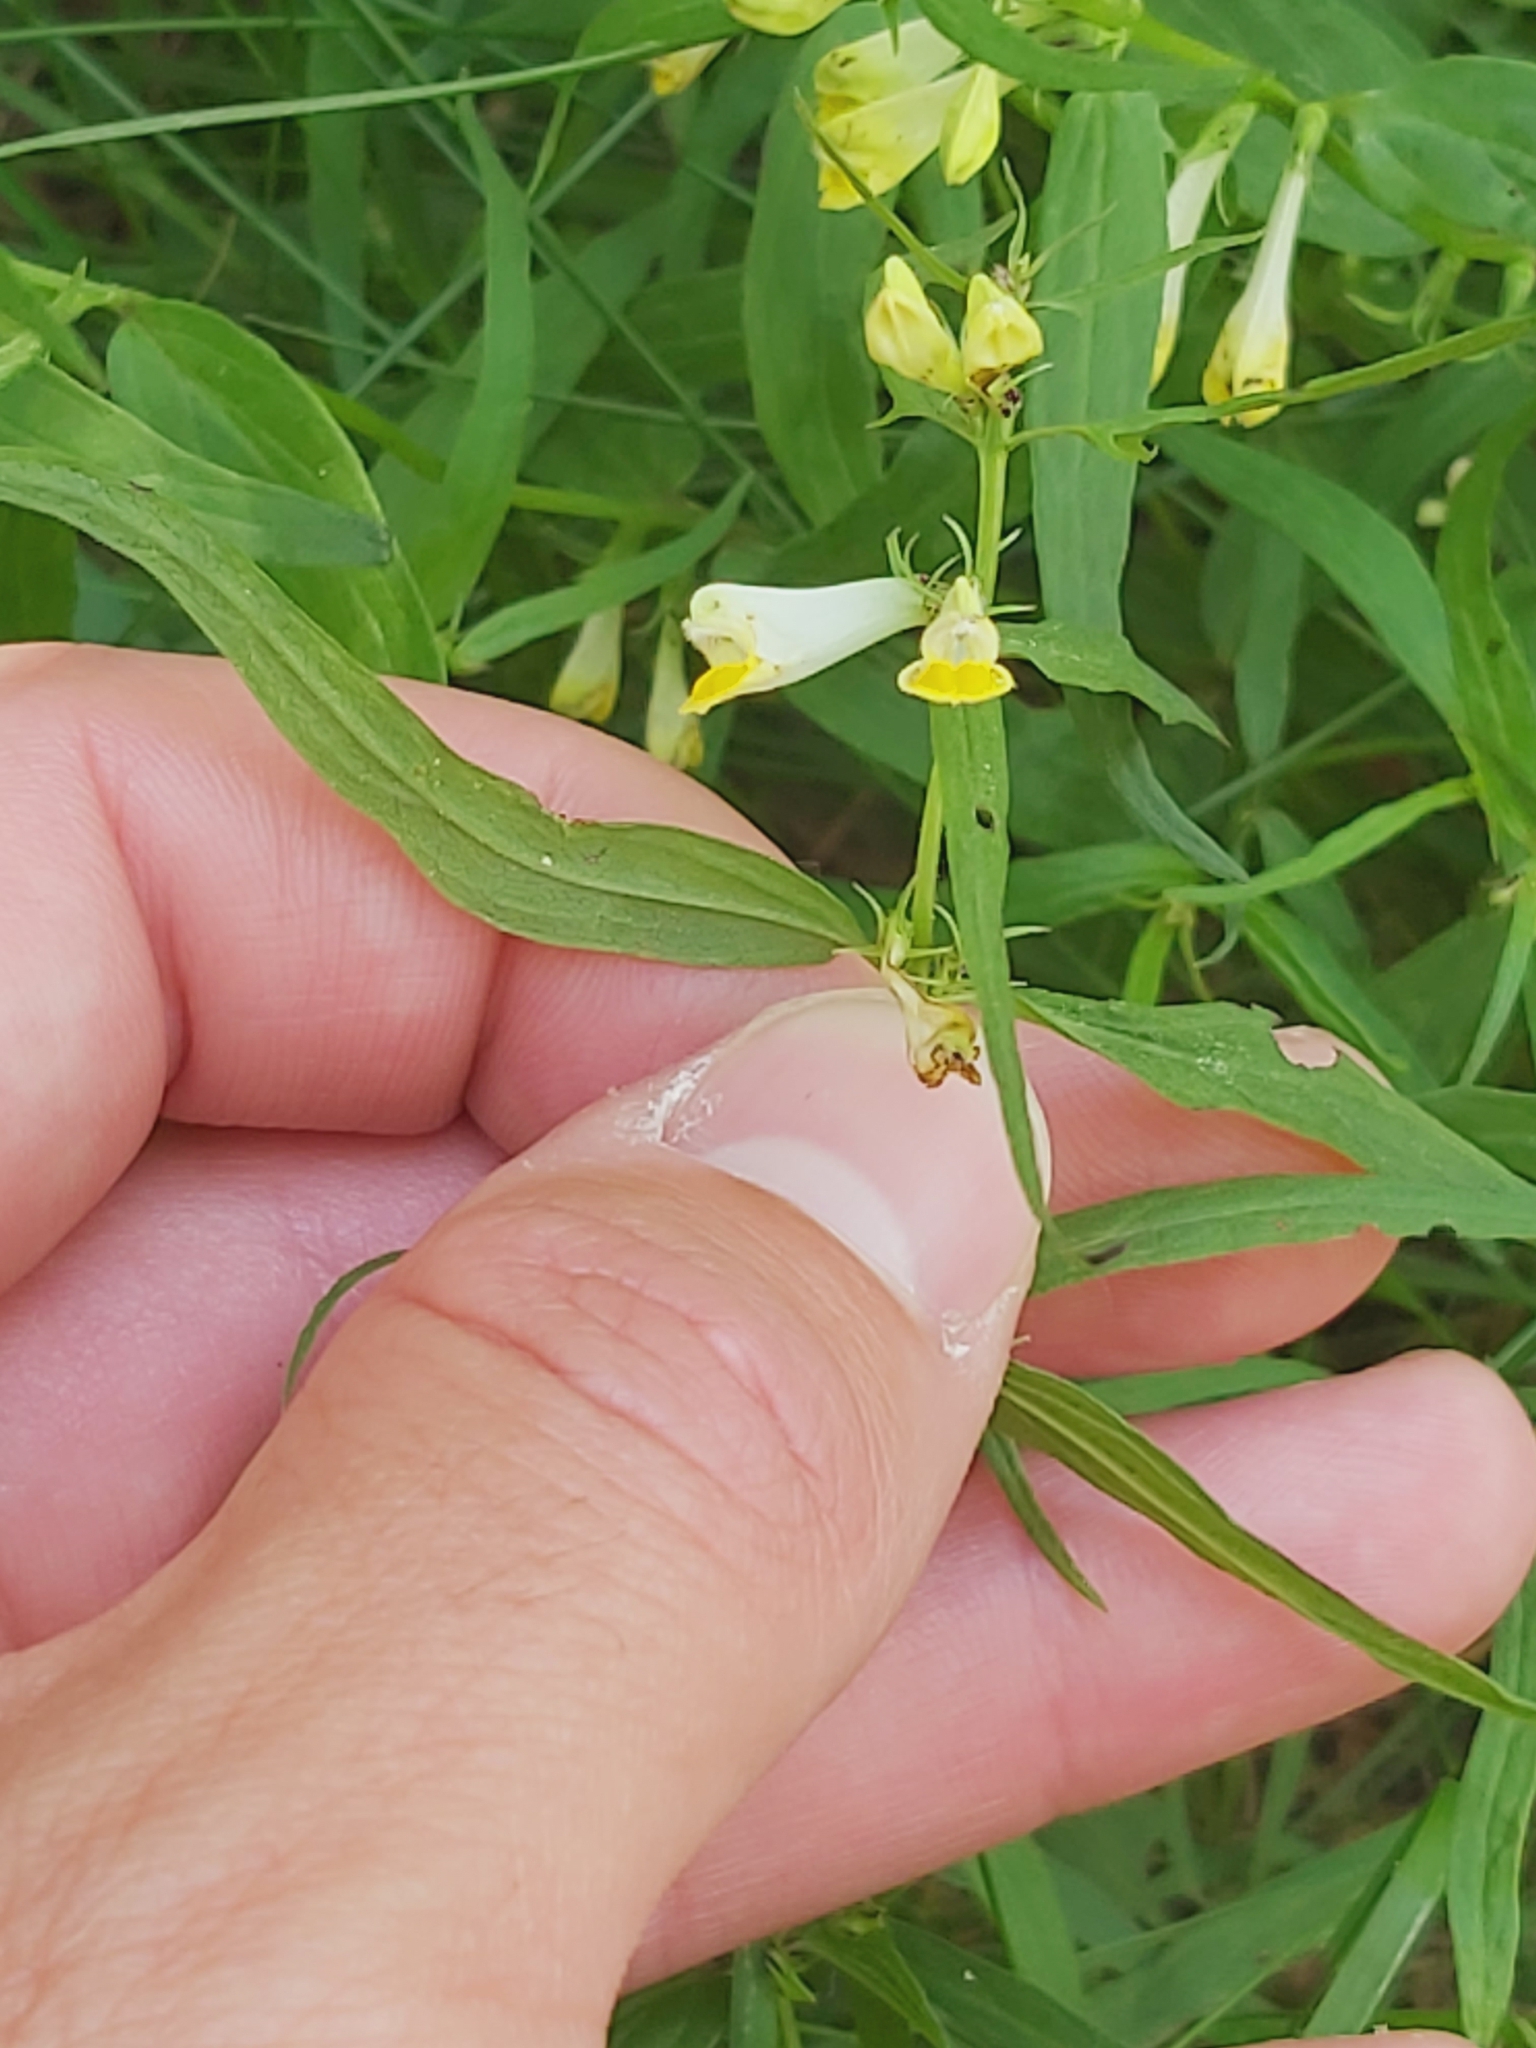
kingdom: Plantae
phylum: Tracheophyta
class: Magnoliopsida
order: Lamiales
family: Orobanchaceae
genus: Melampyrum
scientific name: Melampyrum pratense
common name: Common cow-wheat
